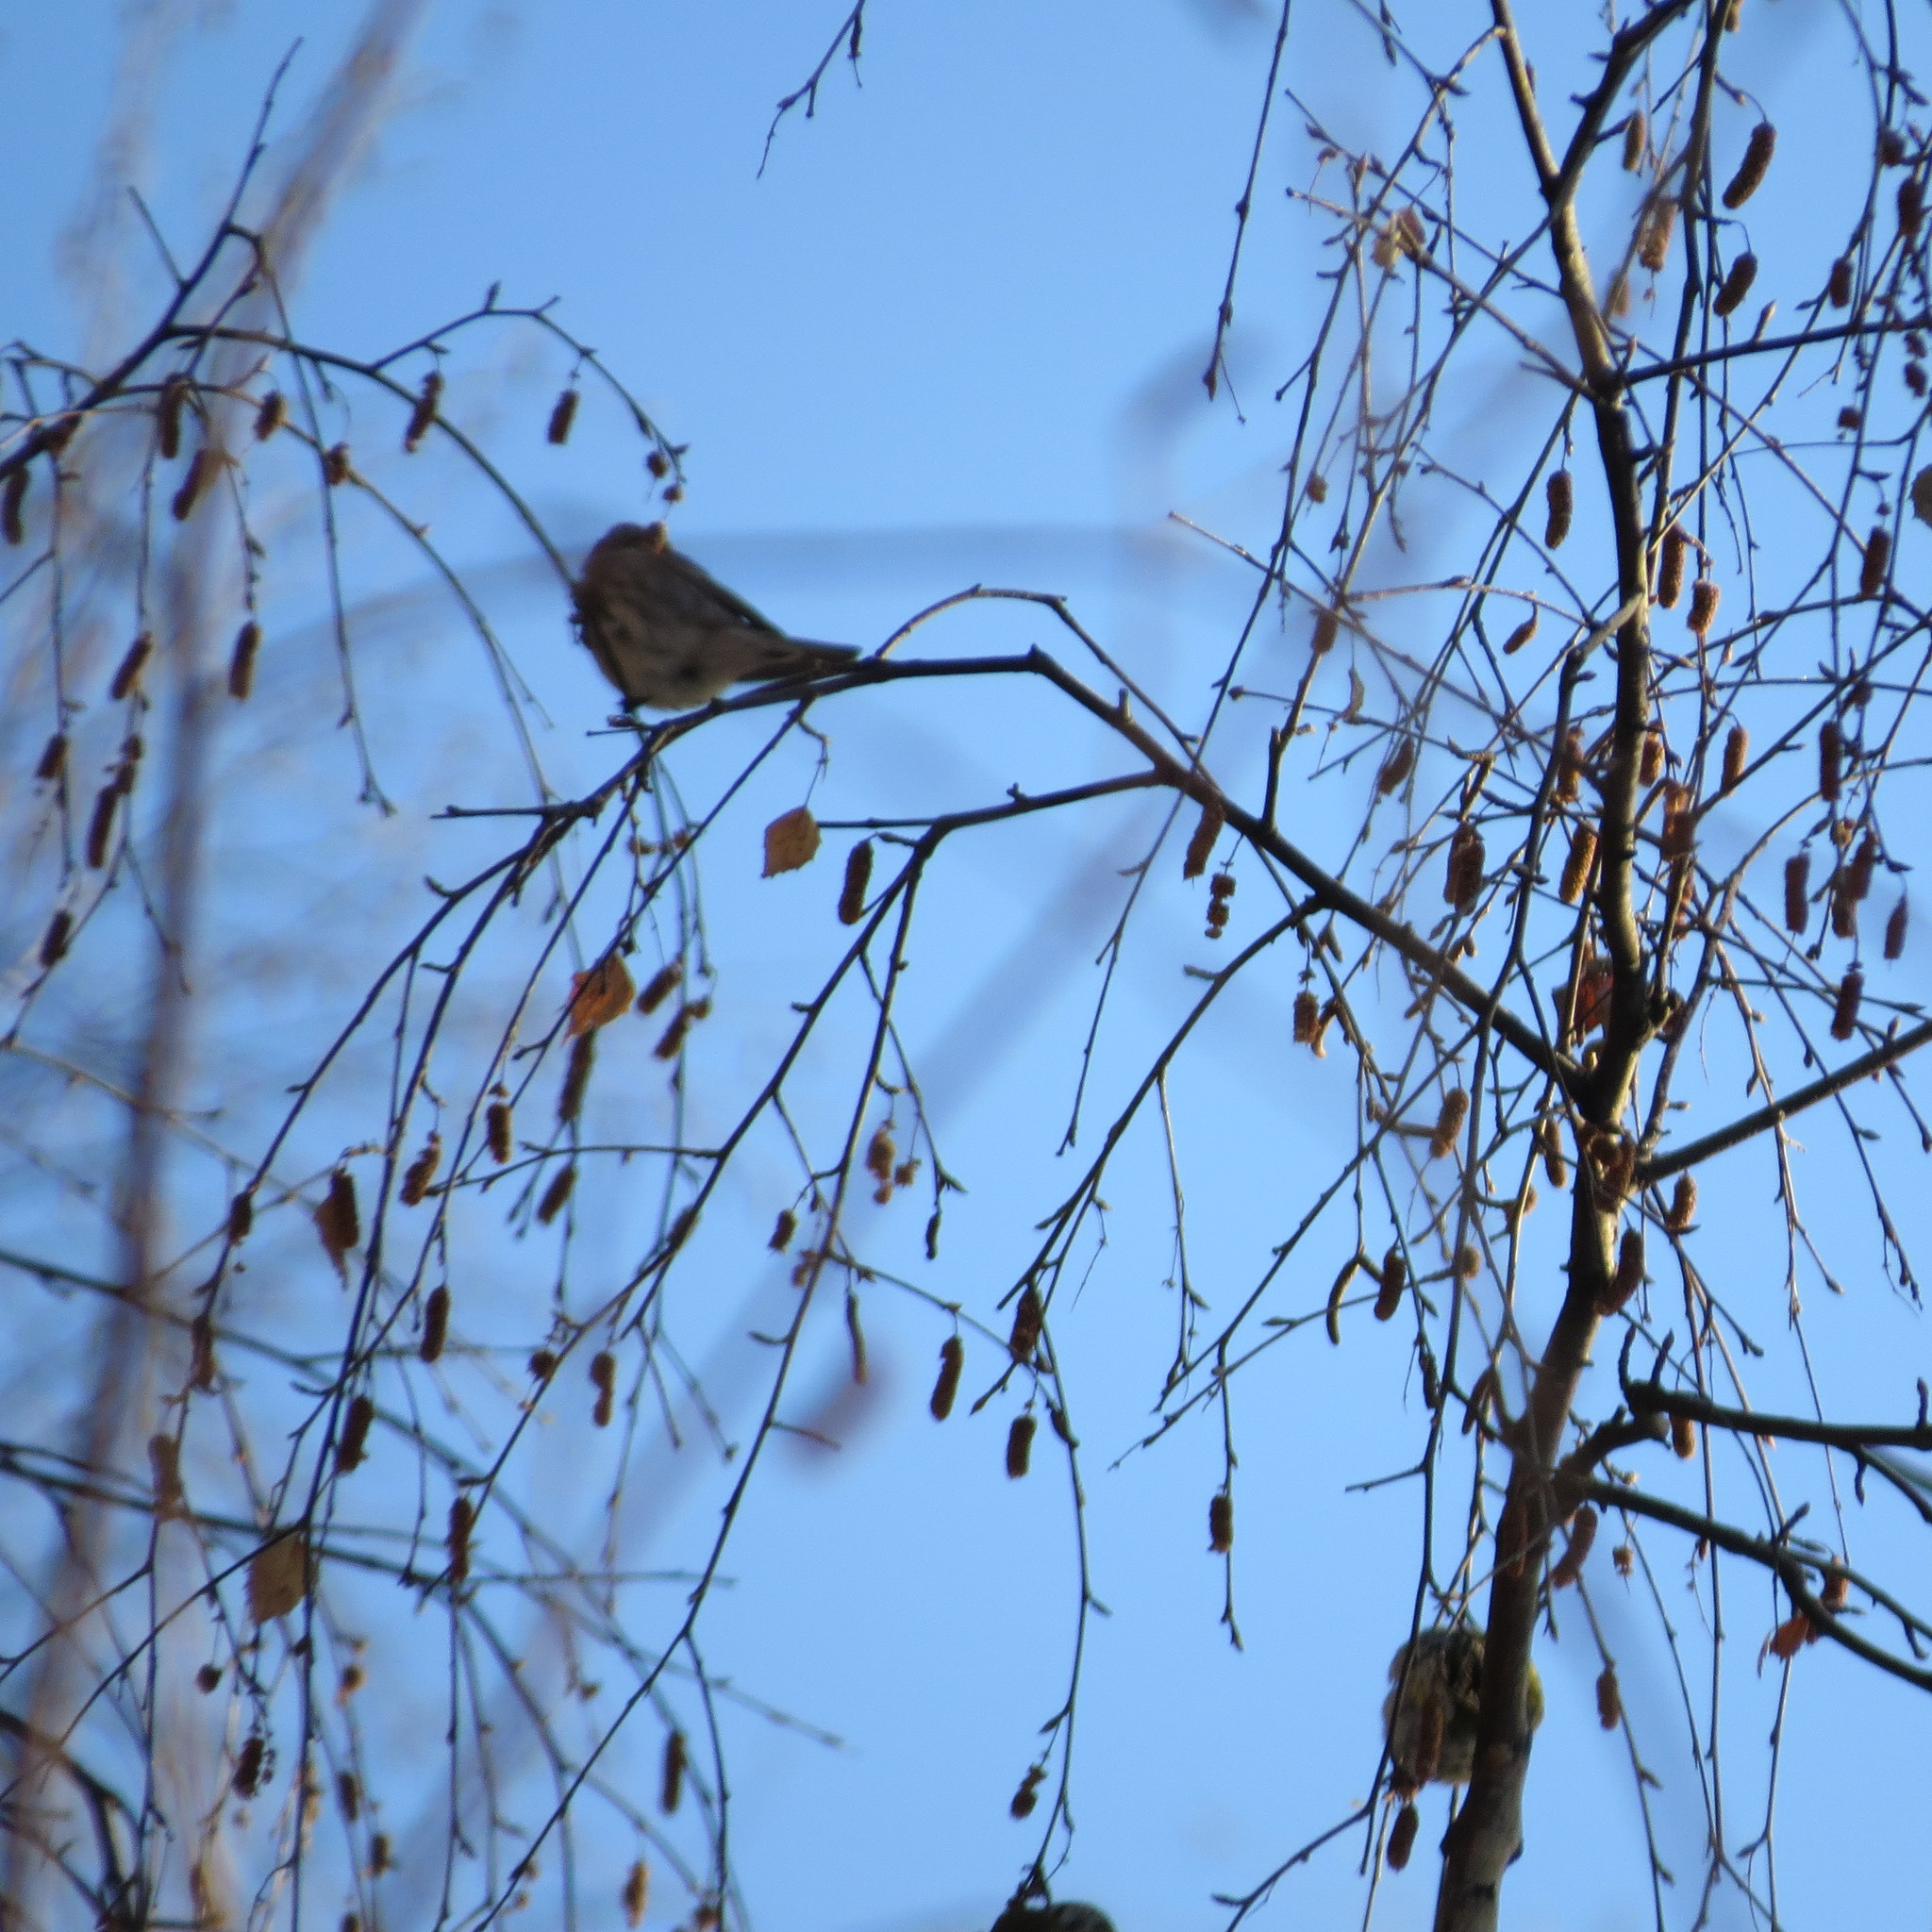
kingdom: Animalia
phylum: Chordata
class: Aves
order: Passeriformes
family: Fringillidae
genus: Acanthis
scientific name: Acanthis flammea
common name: Common redpoll
